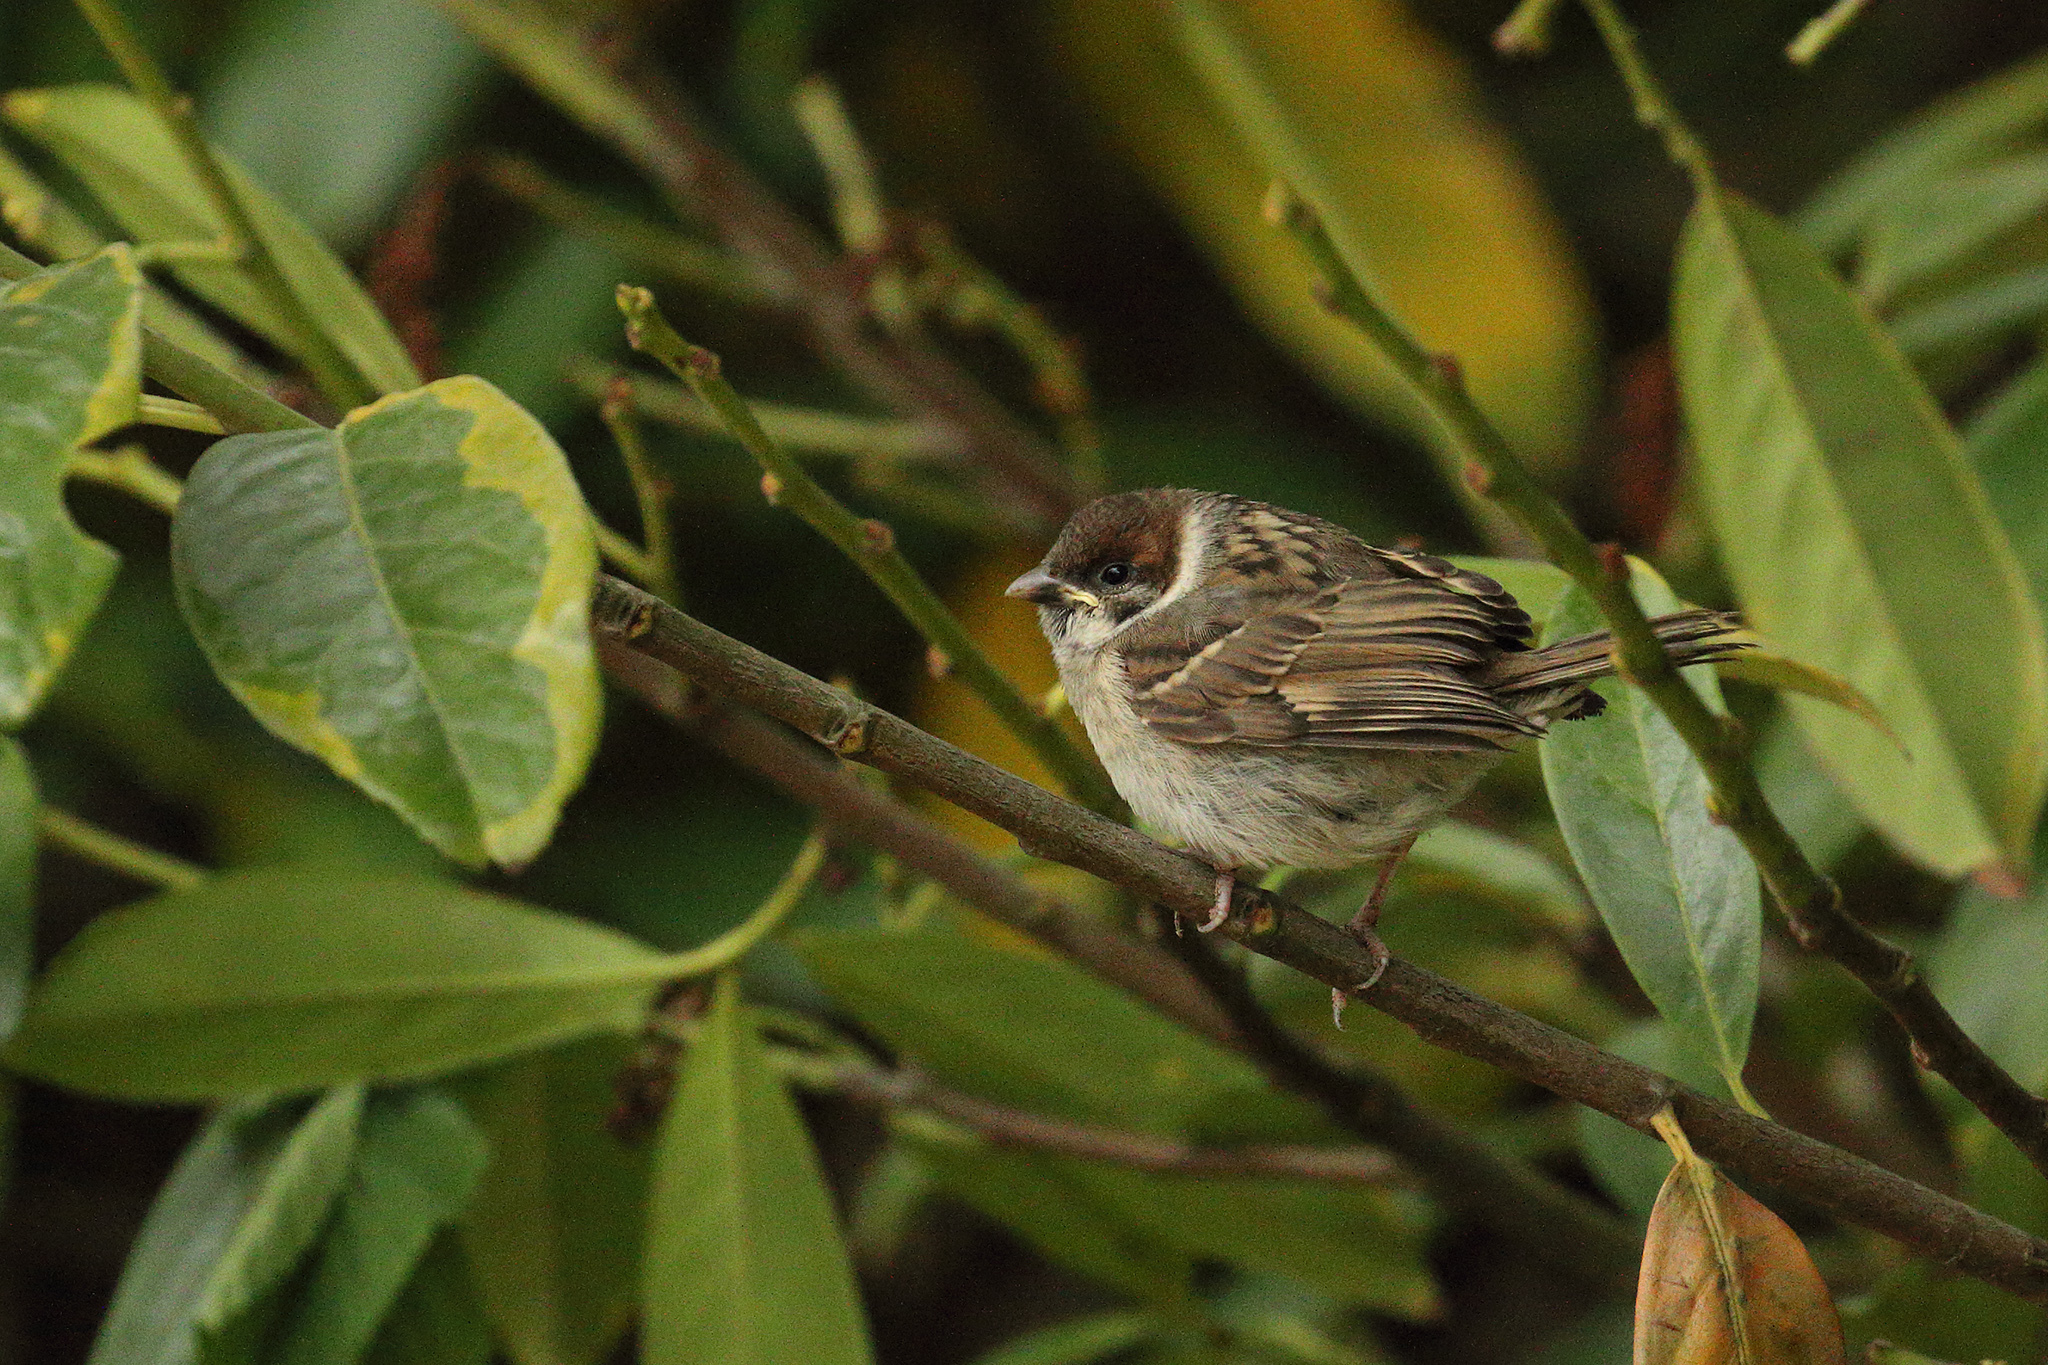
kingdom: Animalia
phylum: Chordata
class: Aves
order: Passeriformes
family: Passeridae
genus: Passer
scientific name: Passer montanus
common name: Eurasian tree sparrow
